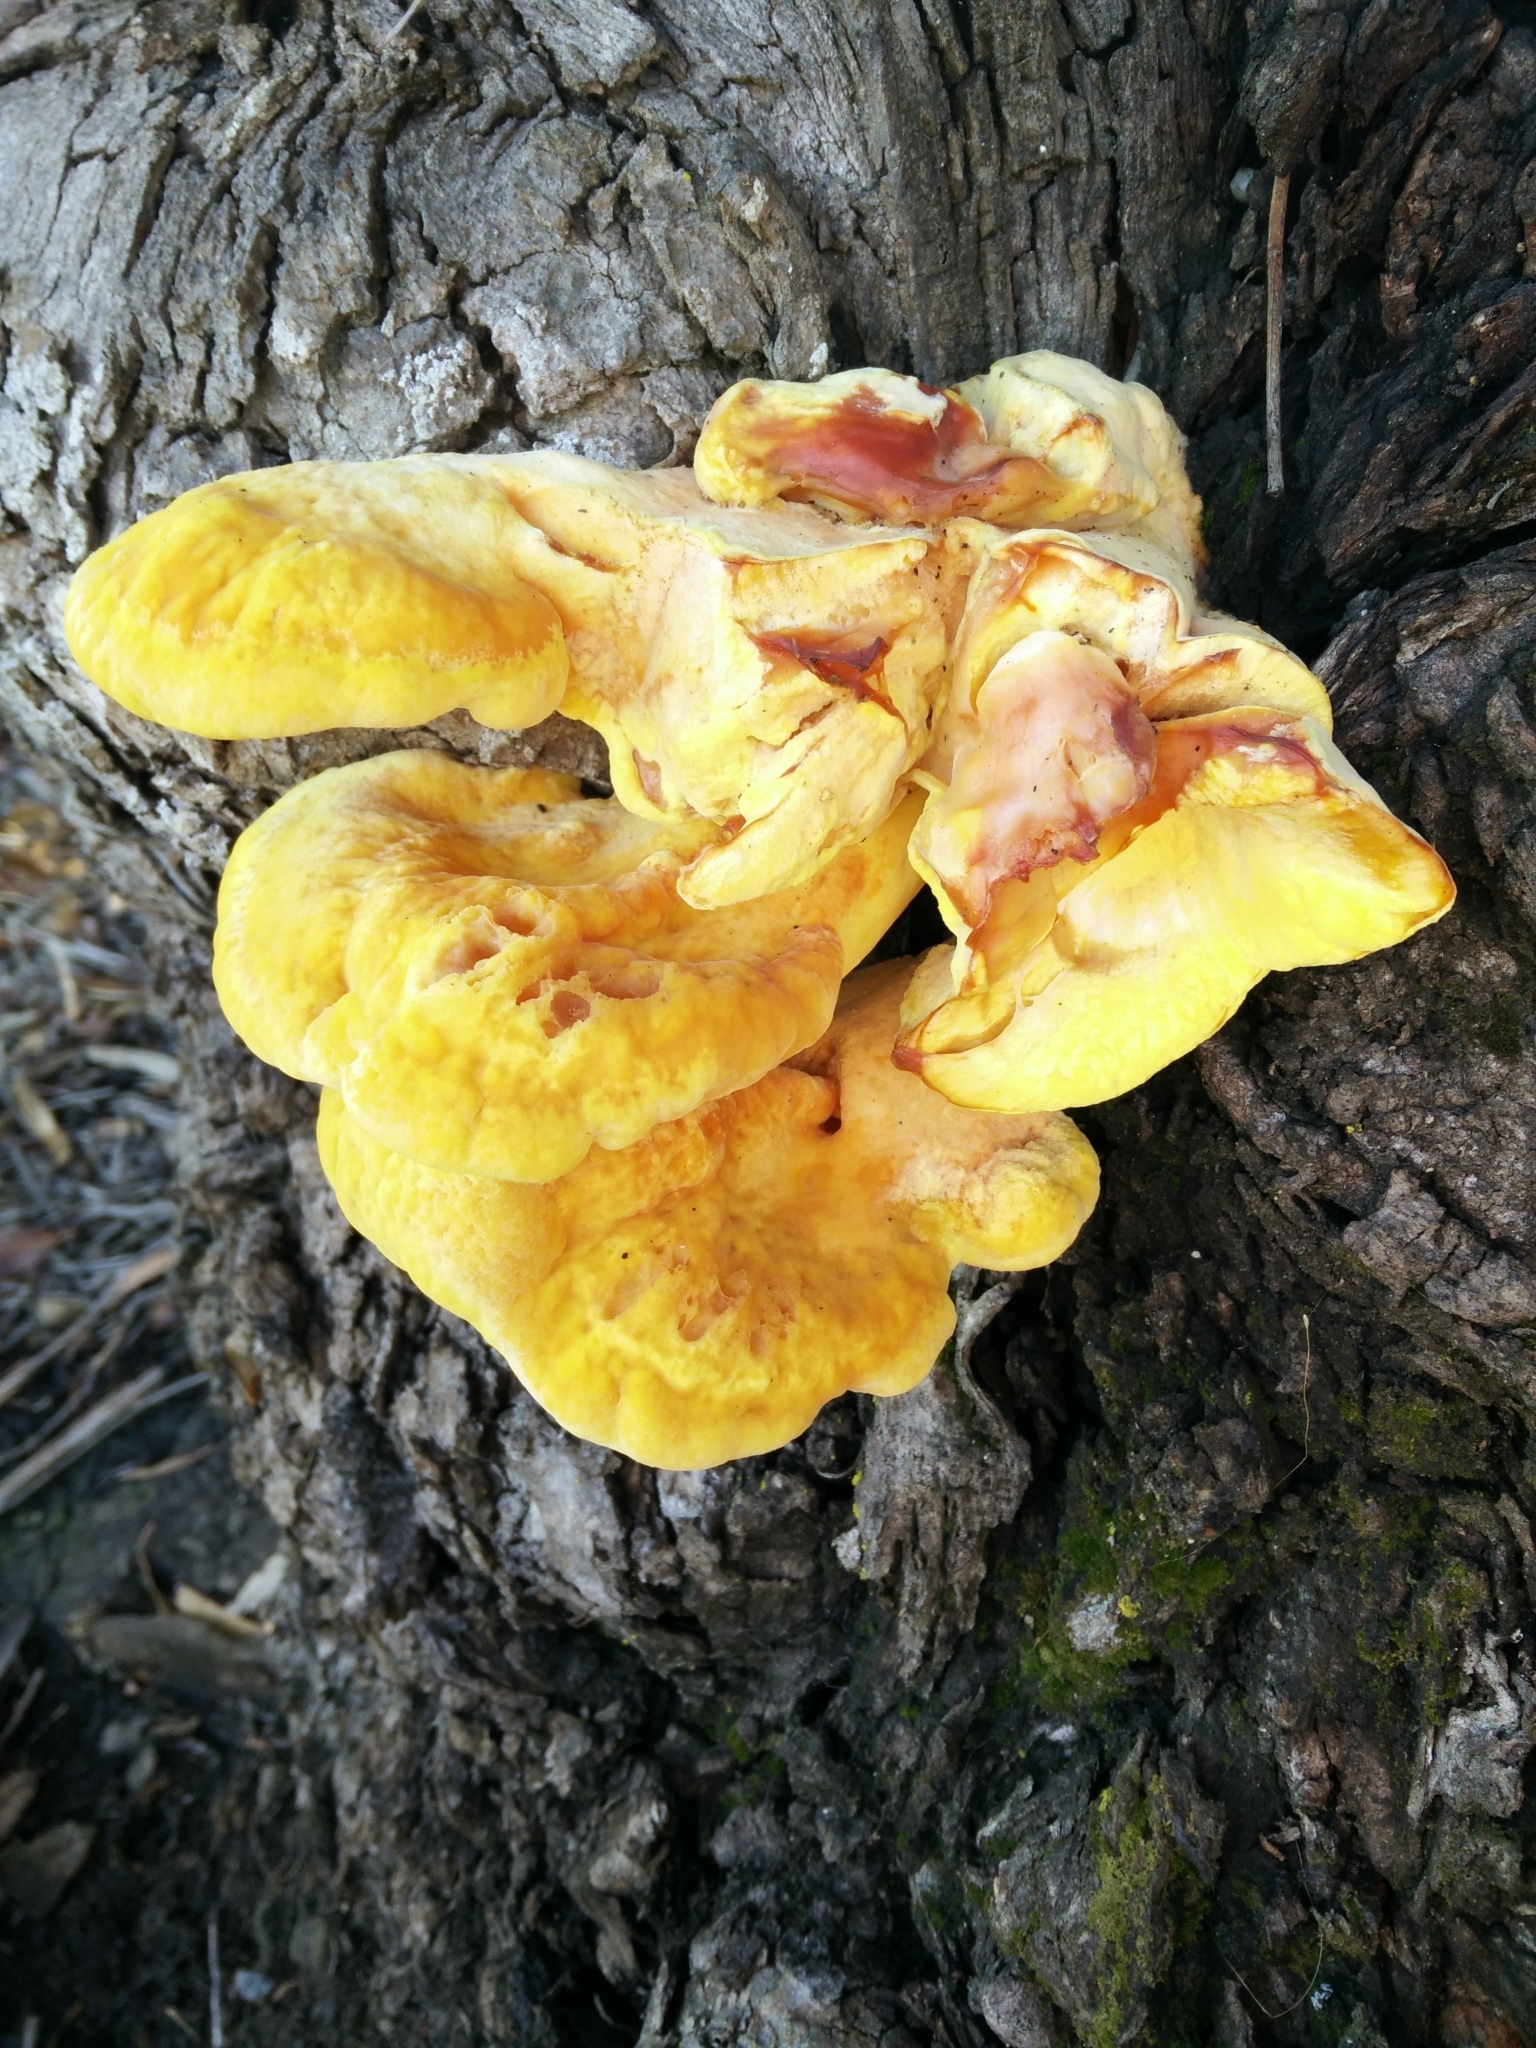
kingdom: Fungi
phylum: Basidiomycota
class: Agaricomycetes
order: Polyporales
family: Laetiporaceae
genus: Laetiporus
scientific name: Laetiporus gilbertsonii
